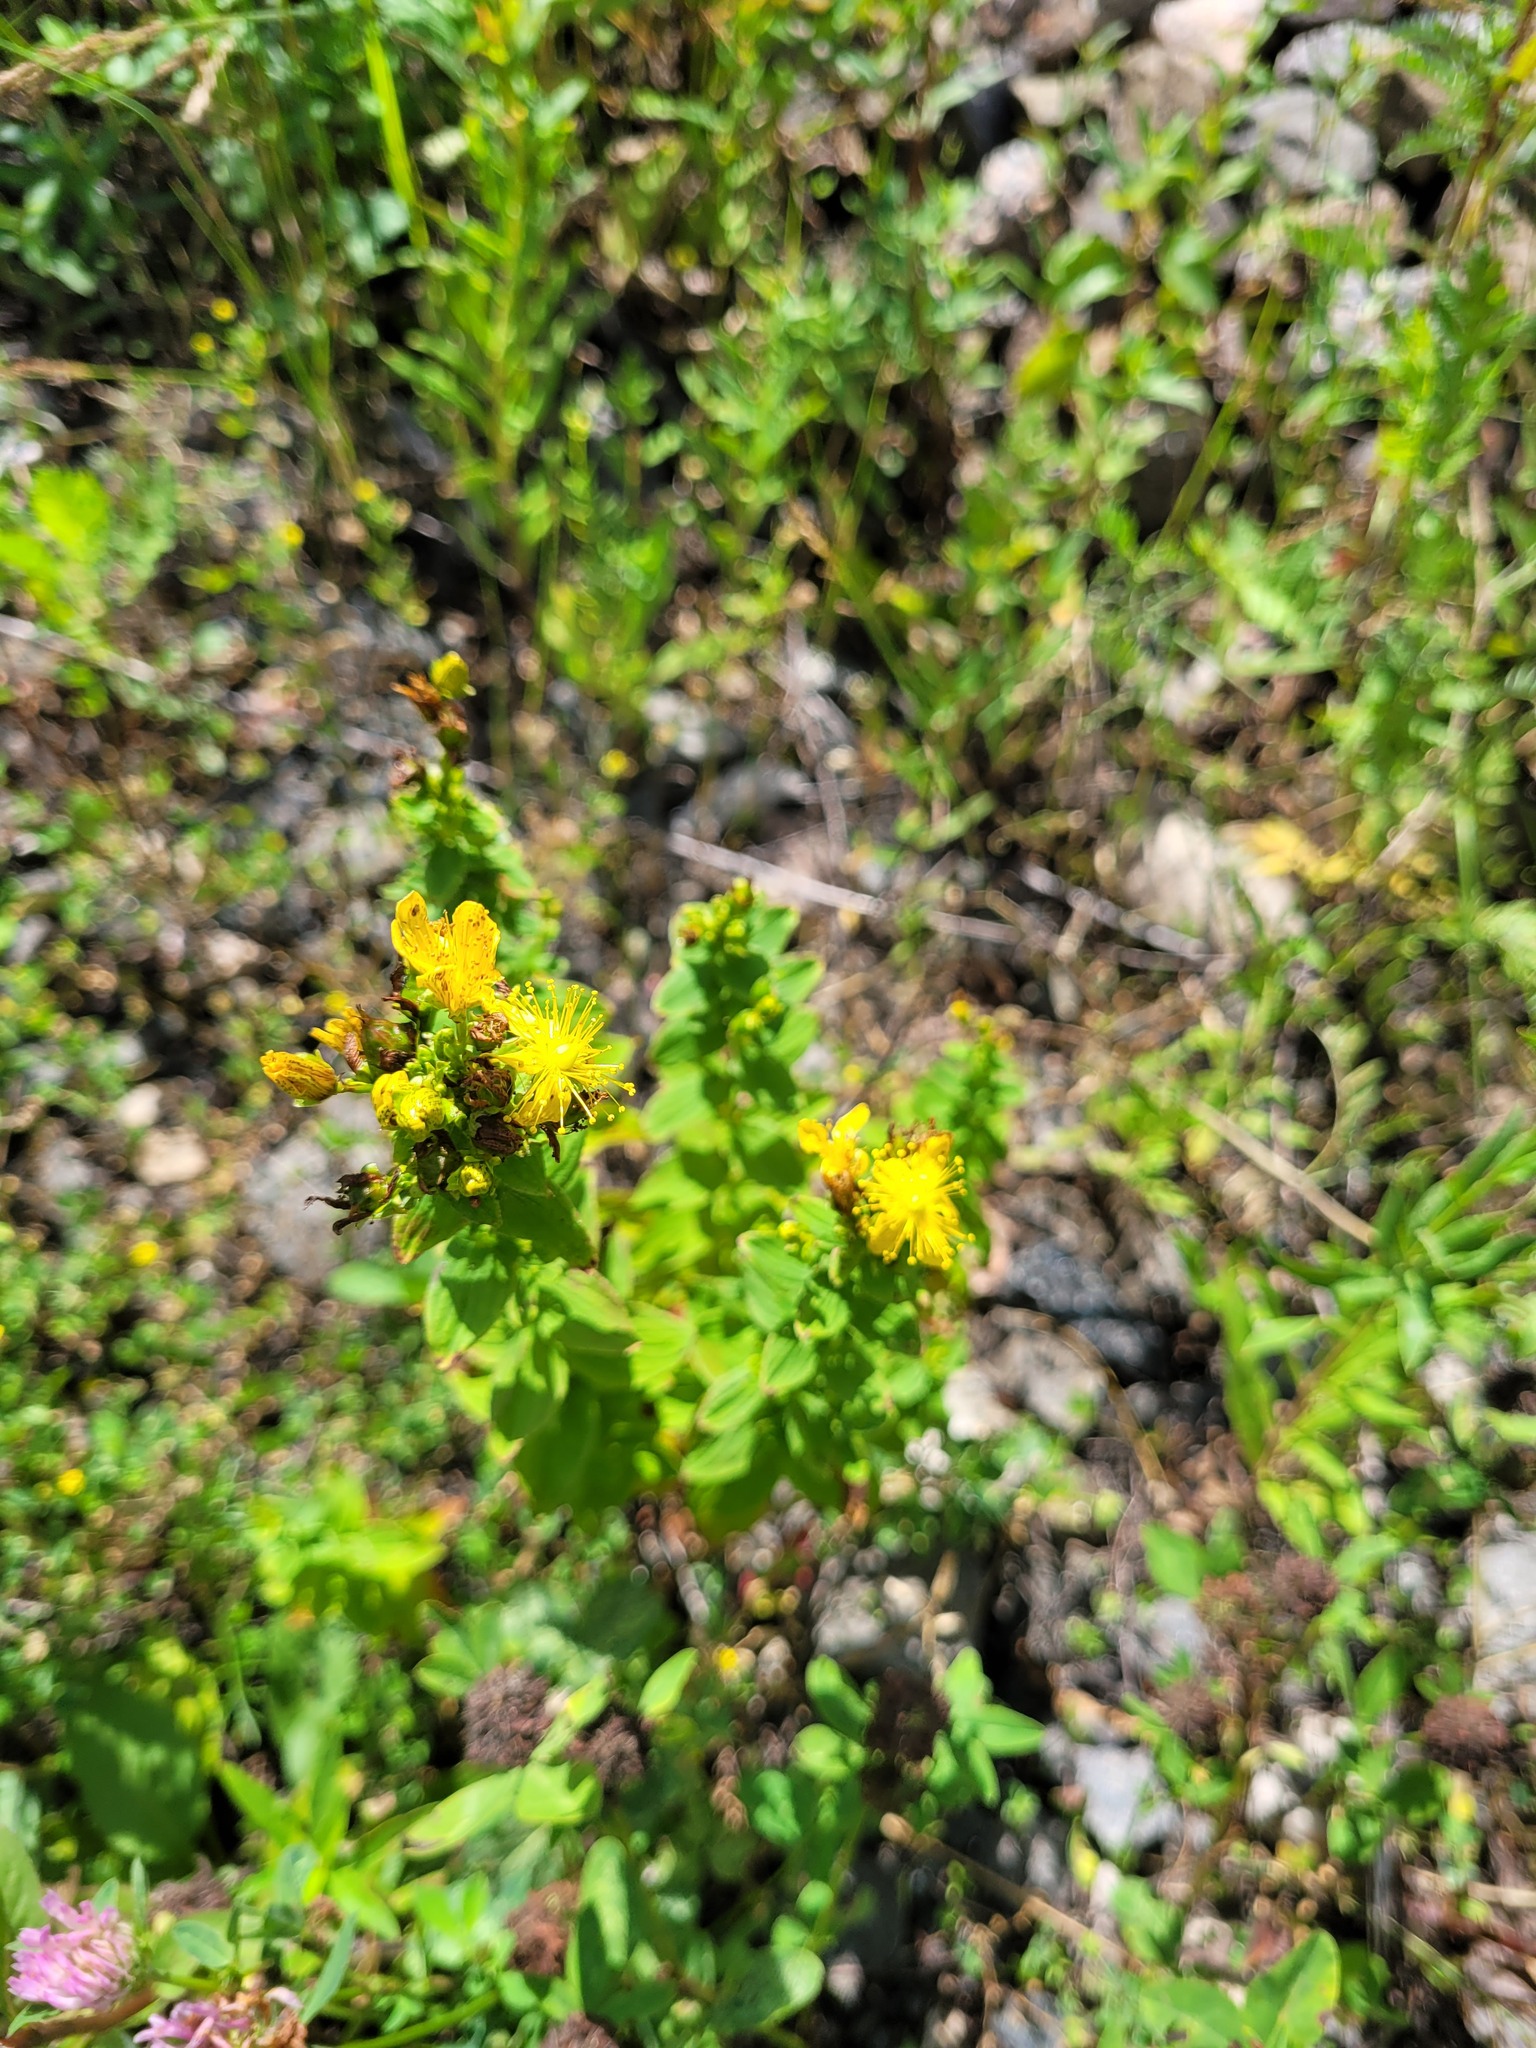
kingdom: Plantae
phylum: Tracheophyta
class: Magnoliopsida
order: Malpighiales
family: Hypericaceae
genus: Hypericum
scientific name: Hypericum maculatum
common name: Imperforate st. john's-wort
